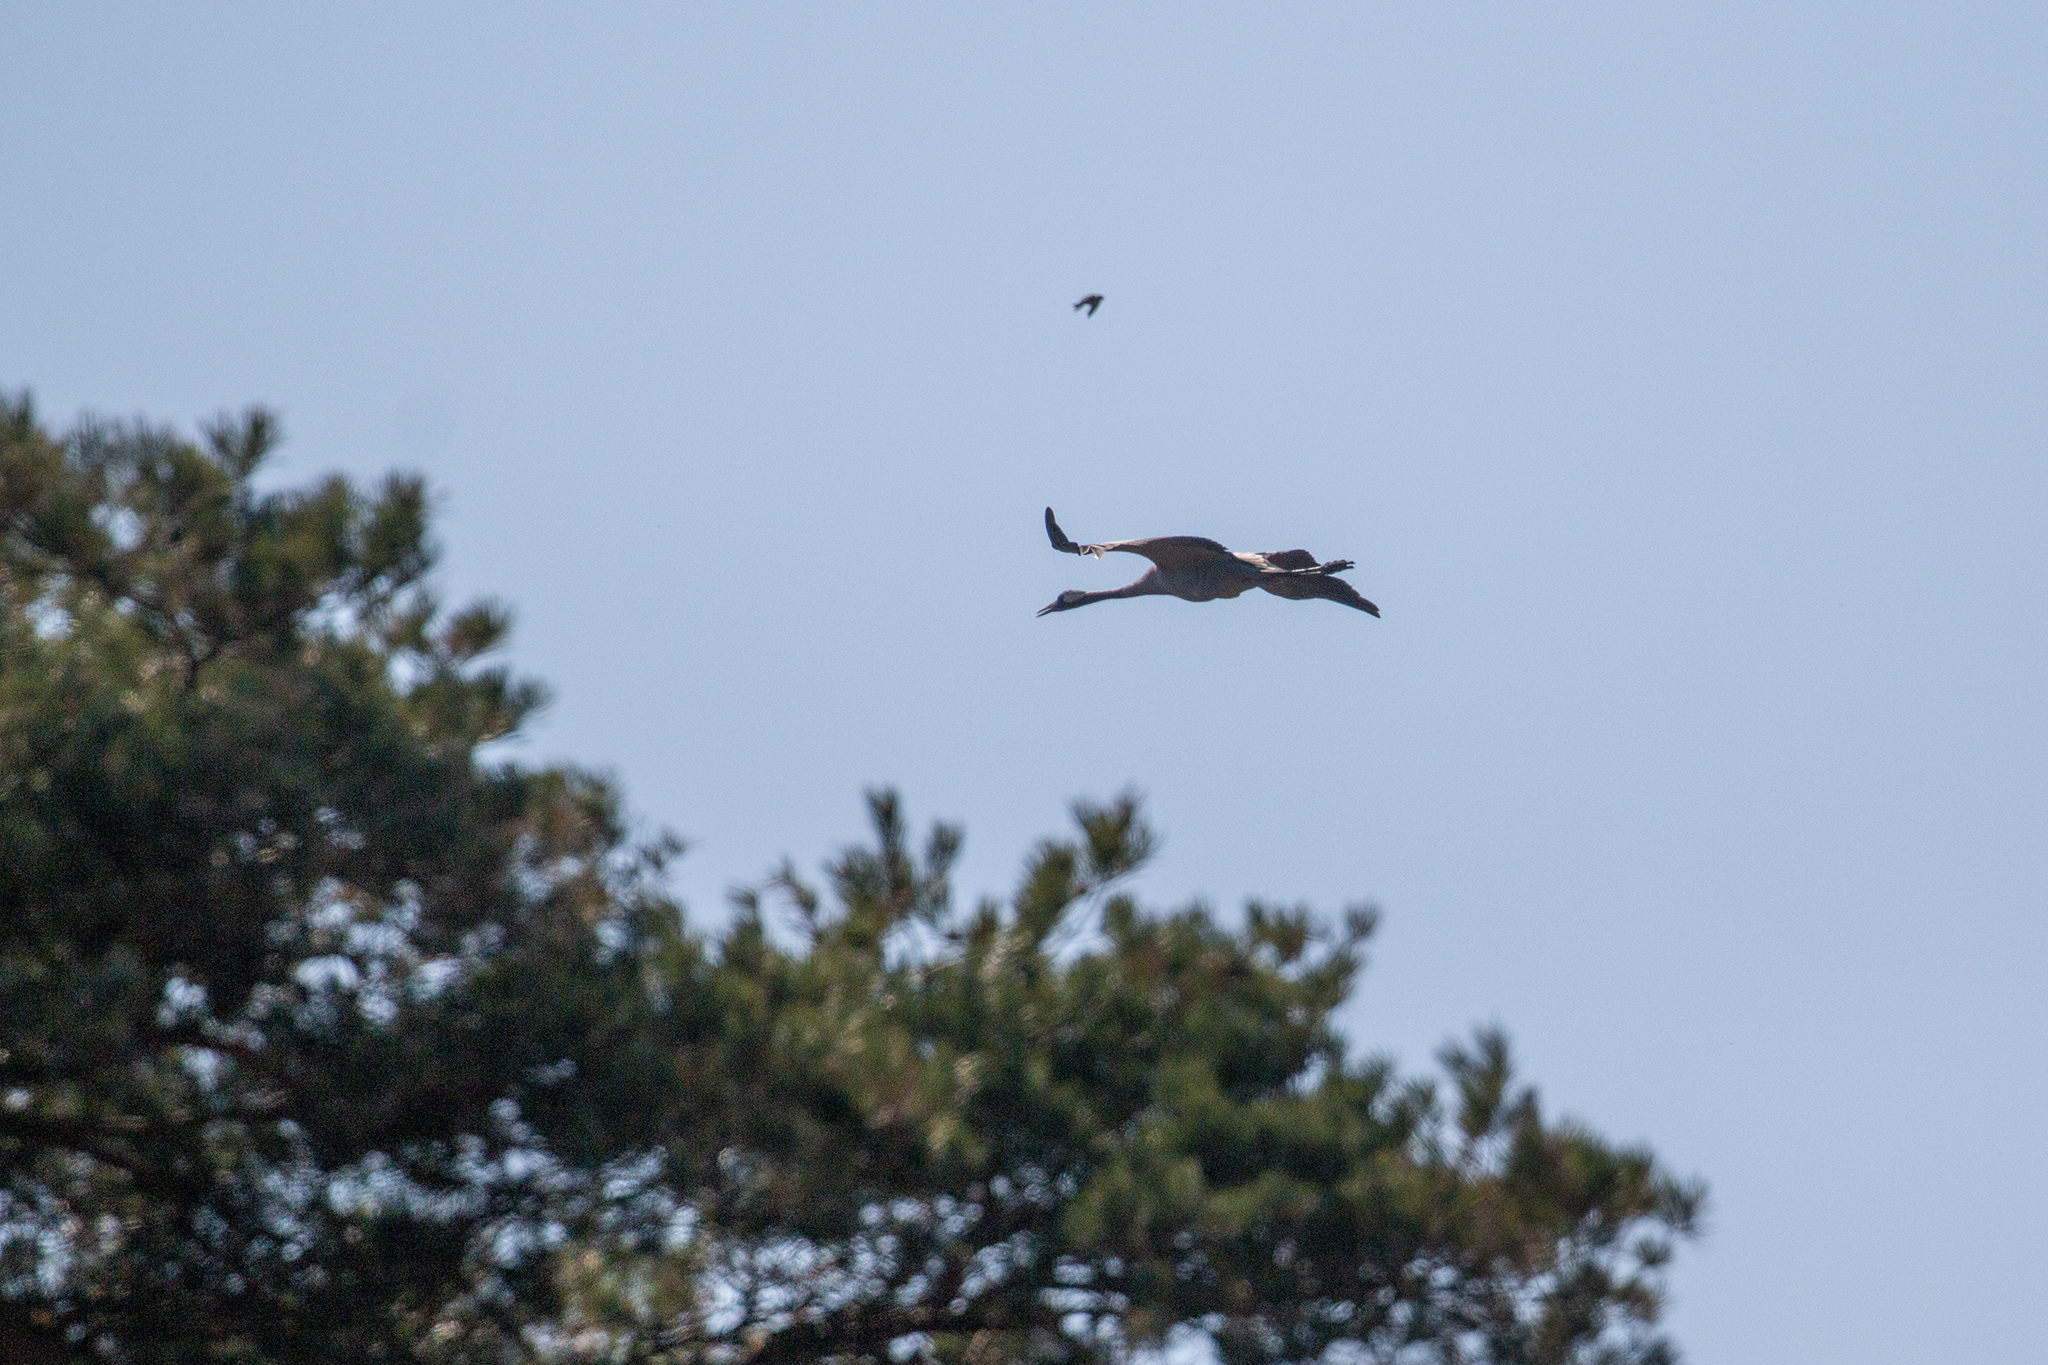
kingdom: Animalia
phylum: Chordata
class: Aves
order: Gruiformes
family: Gruidae
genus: Grus
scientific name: Grus grus
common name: Common crane
